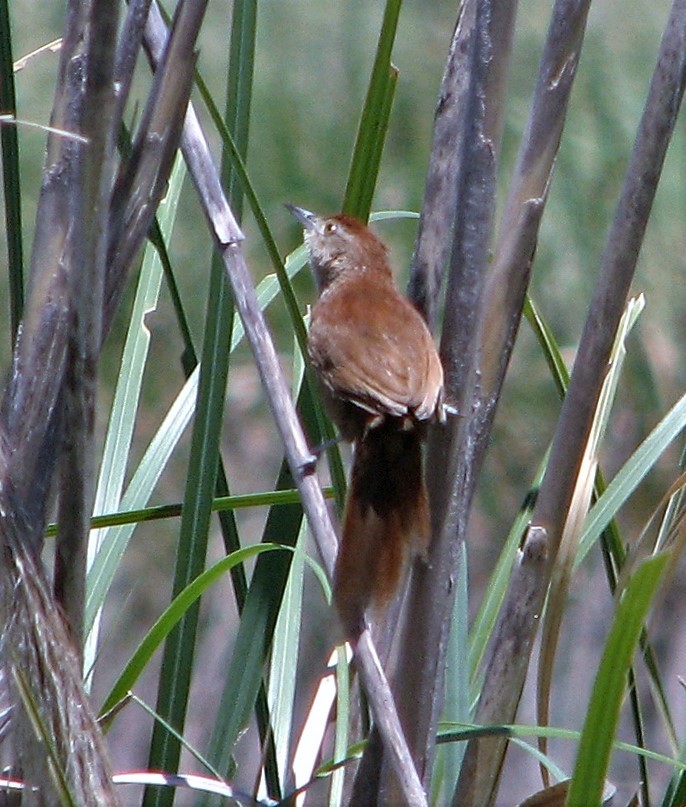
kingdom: Animalia
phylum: Chordata
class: Aves
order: Passeriformes
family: Furnariidae
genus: Phacellodomus
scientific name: Phacellodomus striaticollis
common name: Freckle-breasted thornbird
